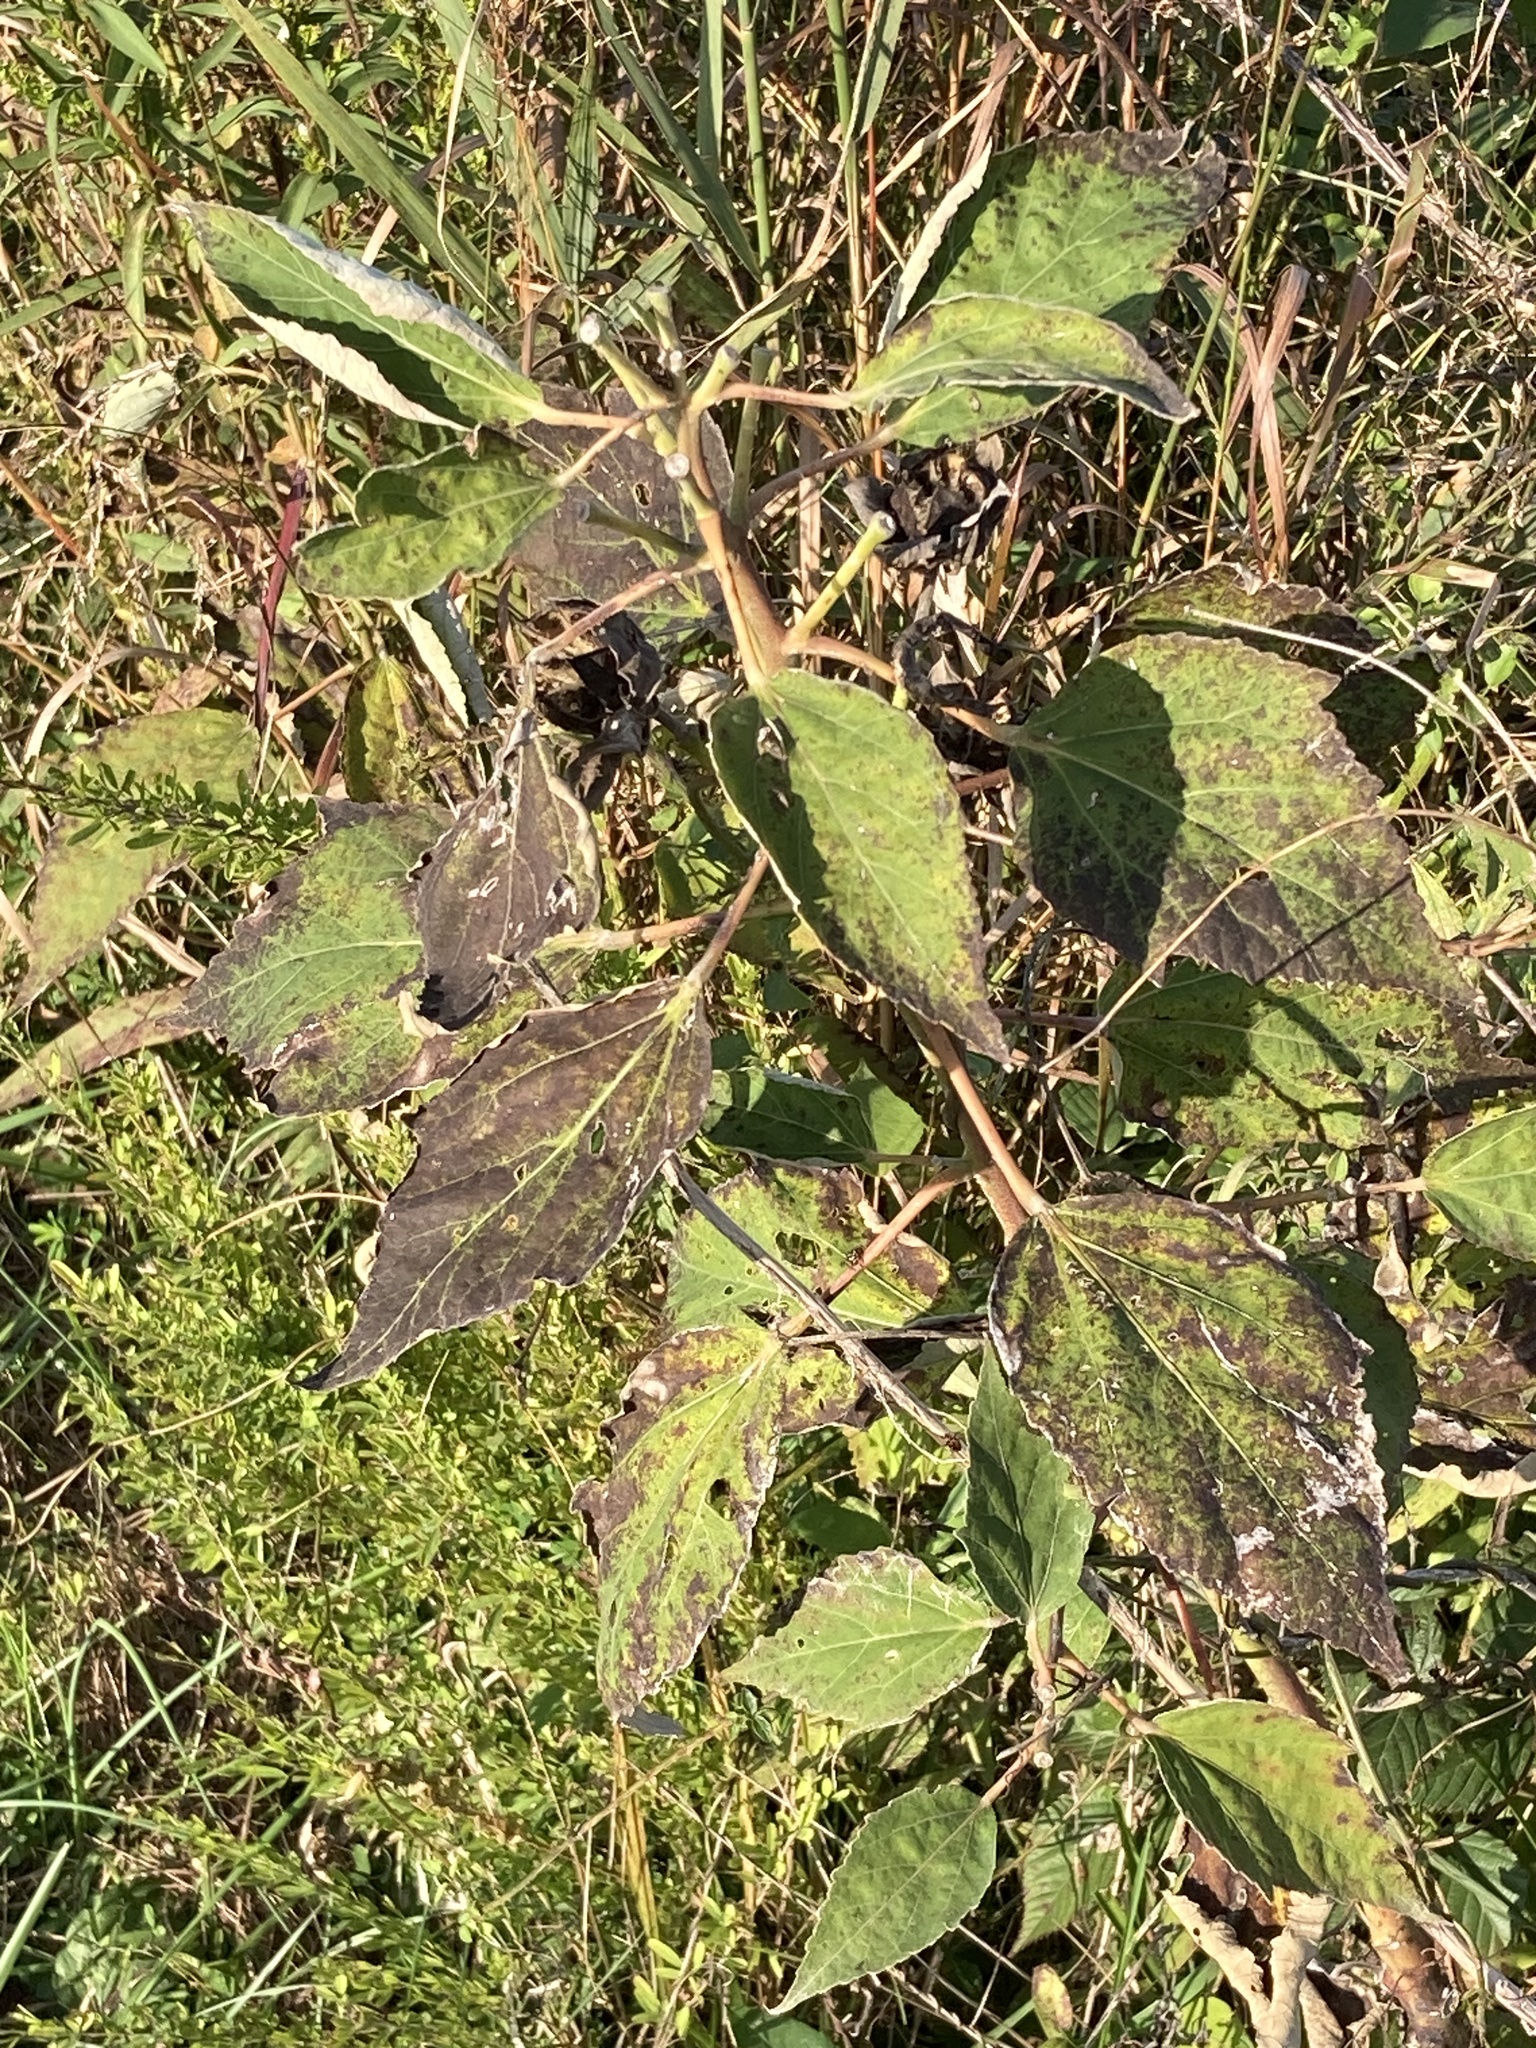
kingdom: Plantae
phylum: Tracheophyta
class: Magnoliopsida
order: Malvales
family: Malvaceae
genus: Hibiscus
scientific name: Hibiscus moscheutos
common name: Common rose-mallow
